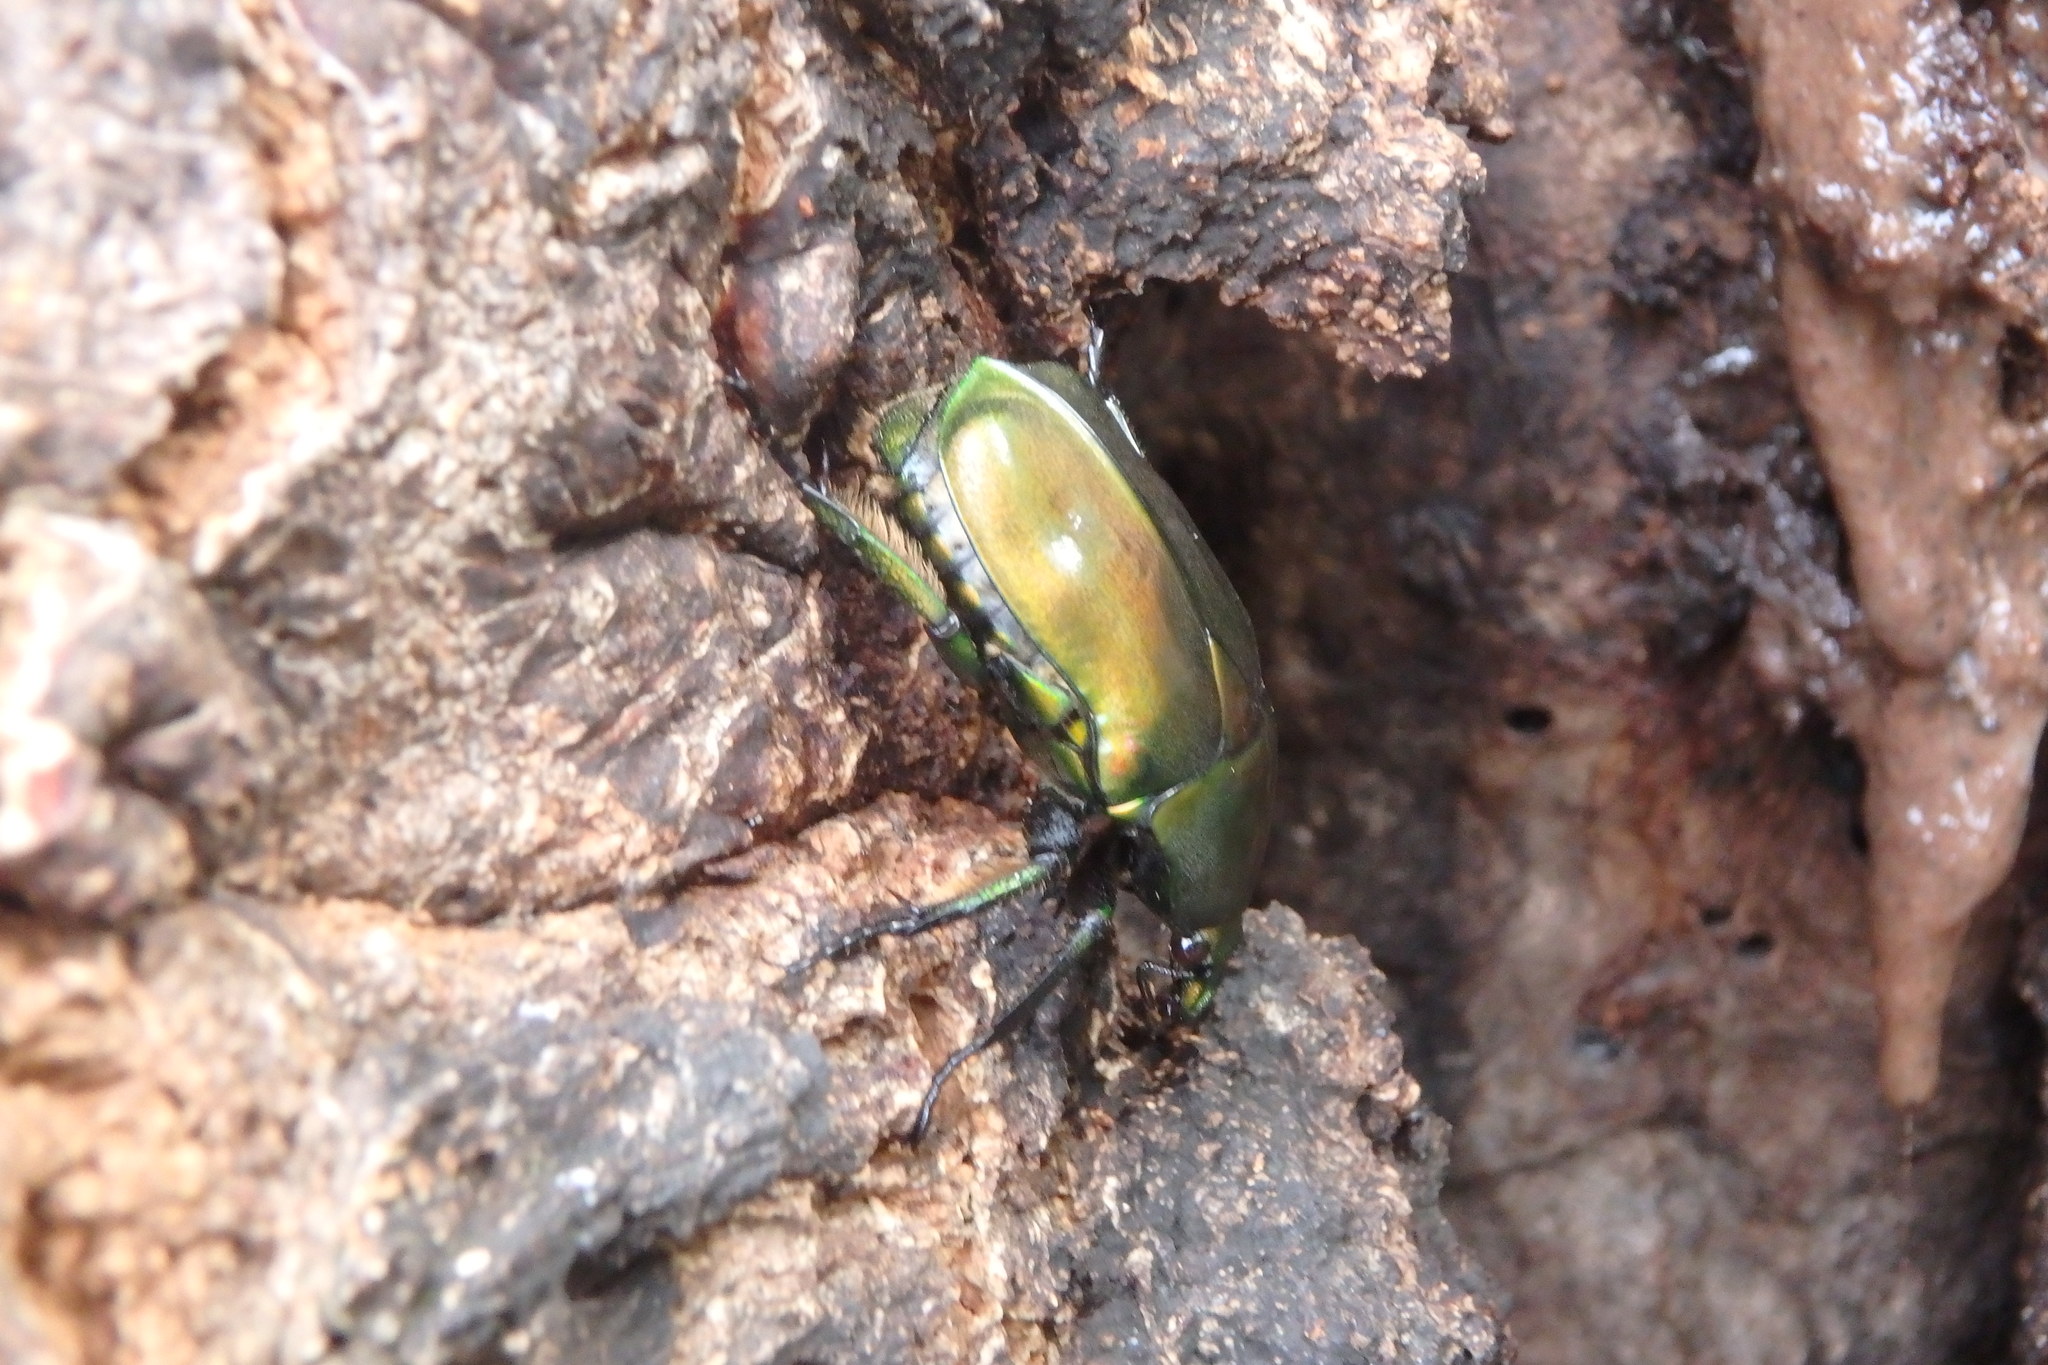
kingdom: Animalia
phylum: Arthropoda
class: Insecta
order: Coleoptera
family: Scarabaeidae
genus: Pseudotorynorrhina
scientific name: Pseudotorynorrhina japonica
